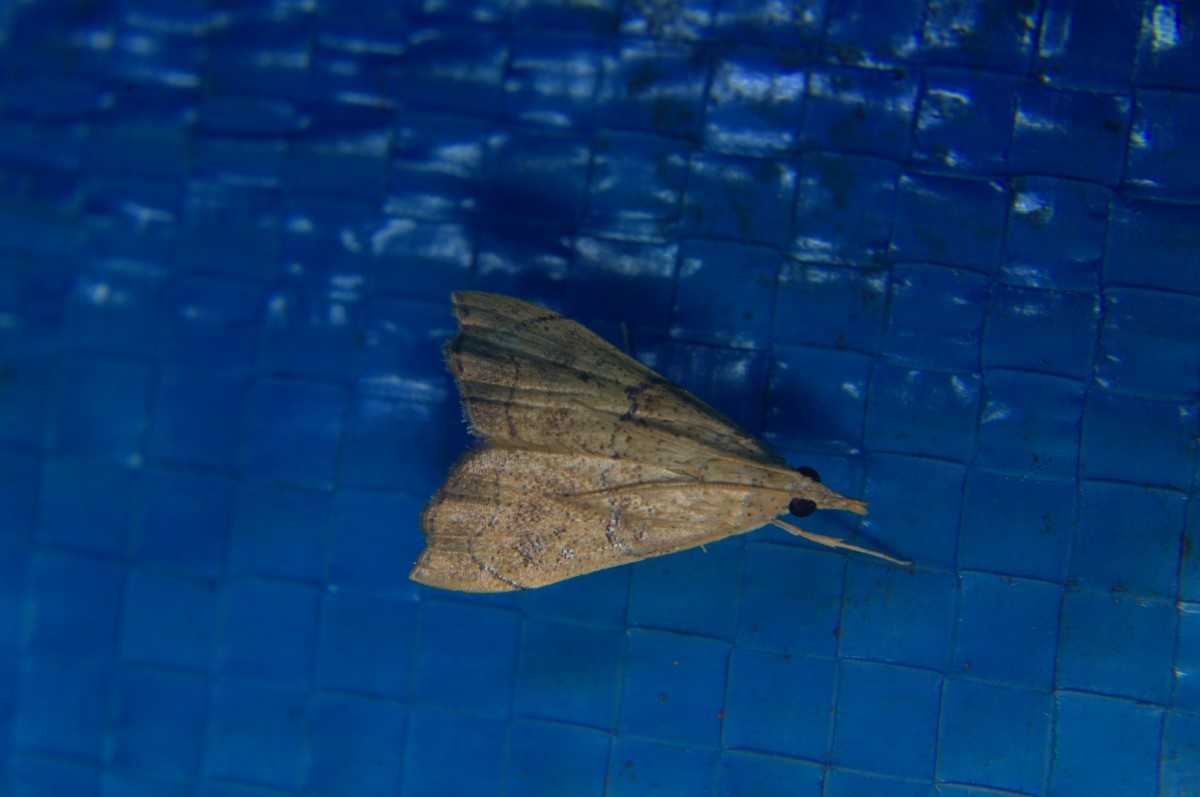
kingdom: Animalia
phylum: Arthropoda
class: Insecta
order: Lepidoptera
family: Crambidae
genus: Ptychopseustis
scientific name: Ptychopseustis plumbeolinealis
